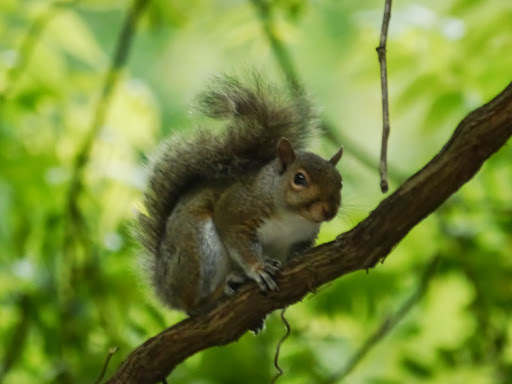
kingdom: Animalia
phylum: Chordata
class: Mammalia
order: Rodentia
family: Sciuridae
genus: Sciurus
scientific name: Sciurus carolinensis
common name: Eastern gray squirrel
